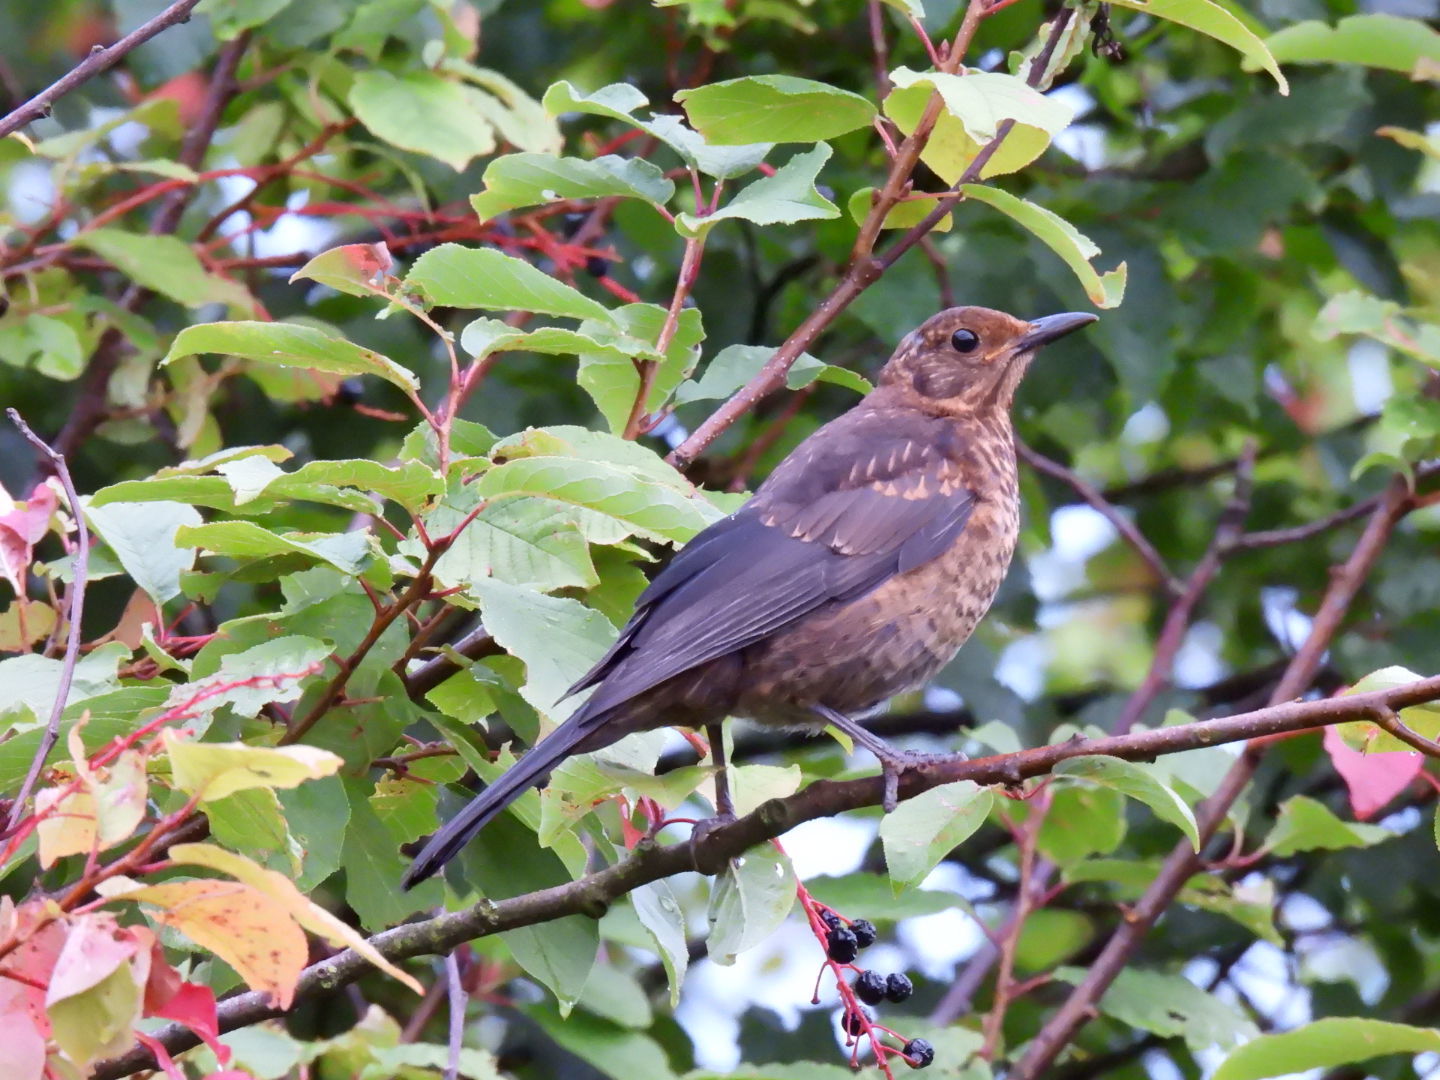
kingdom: Animalia
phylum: Chordata
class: Aves
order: Passeriformes
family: Turdidae
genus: Turdus
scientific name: Turdus merula
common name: Common blackbird
